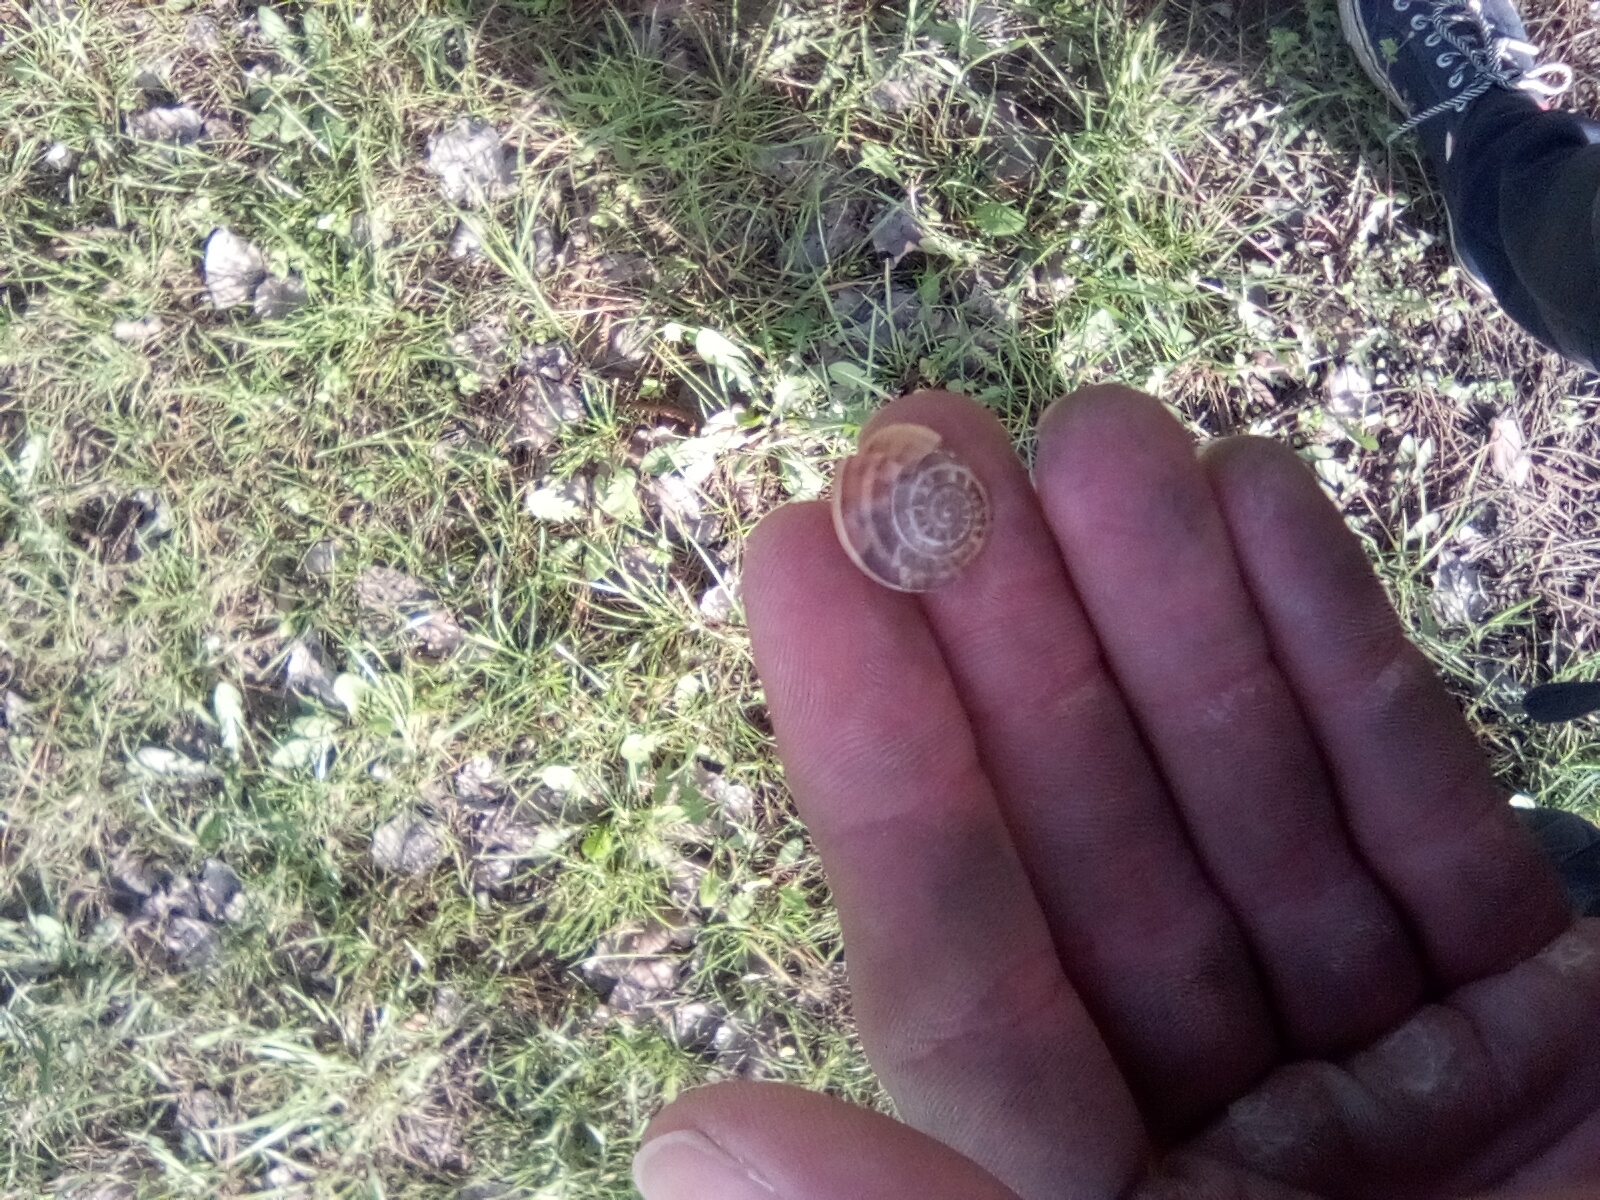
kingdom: Animalia
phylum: Mollusca
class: Gastropoda
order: Stylommatophora
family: Helicidae
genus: Eobania
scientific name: Eobania vermiculata
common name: Chocolateband snail
